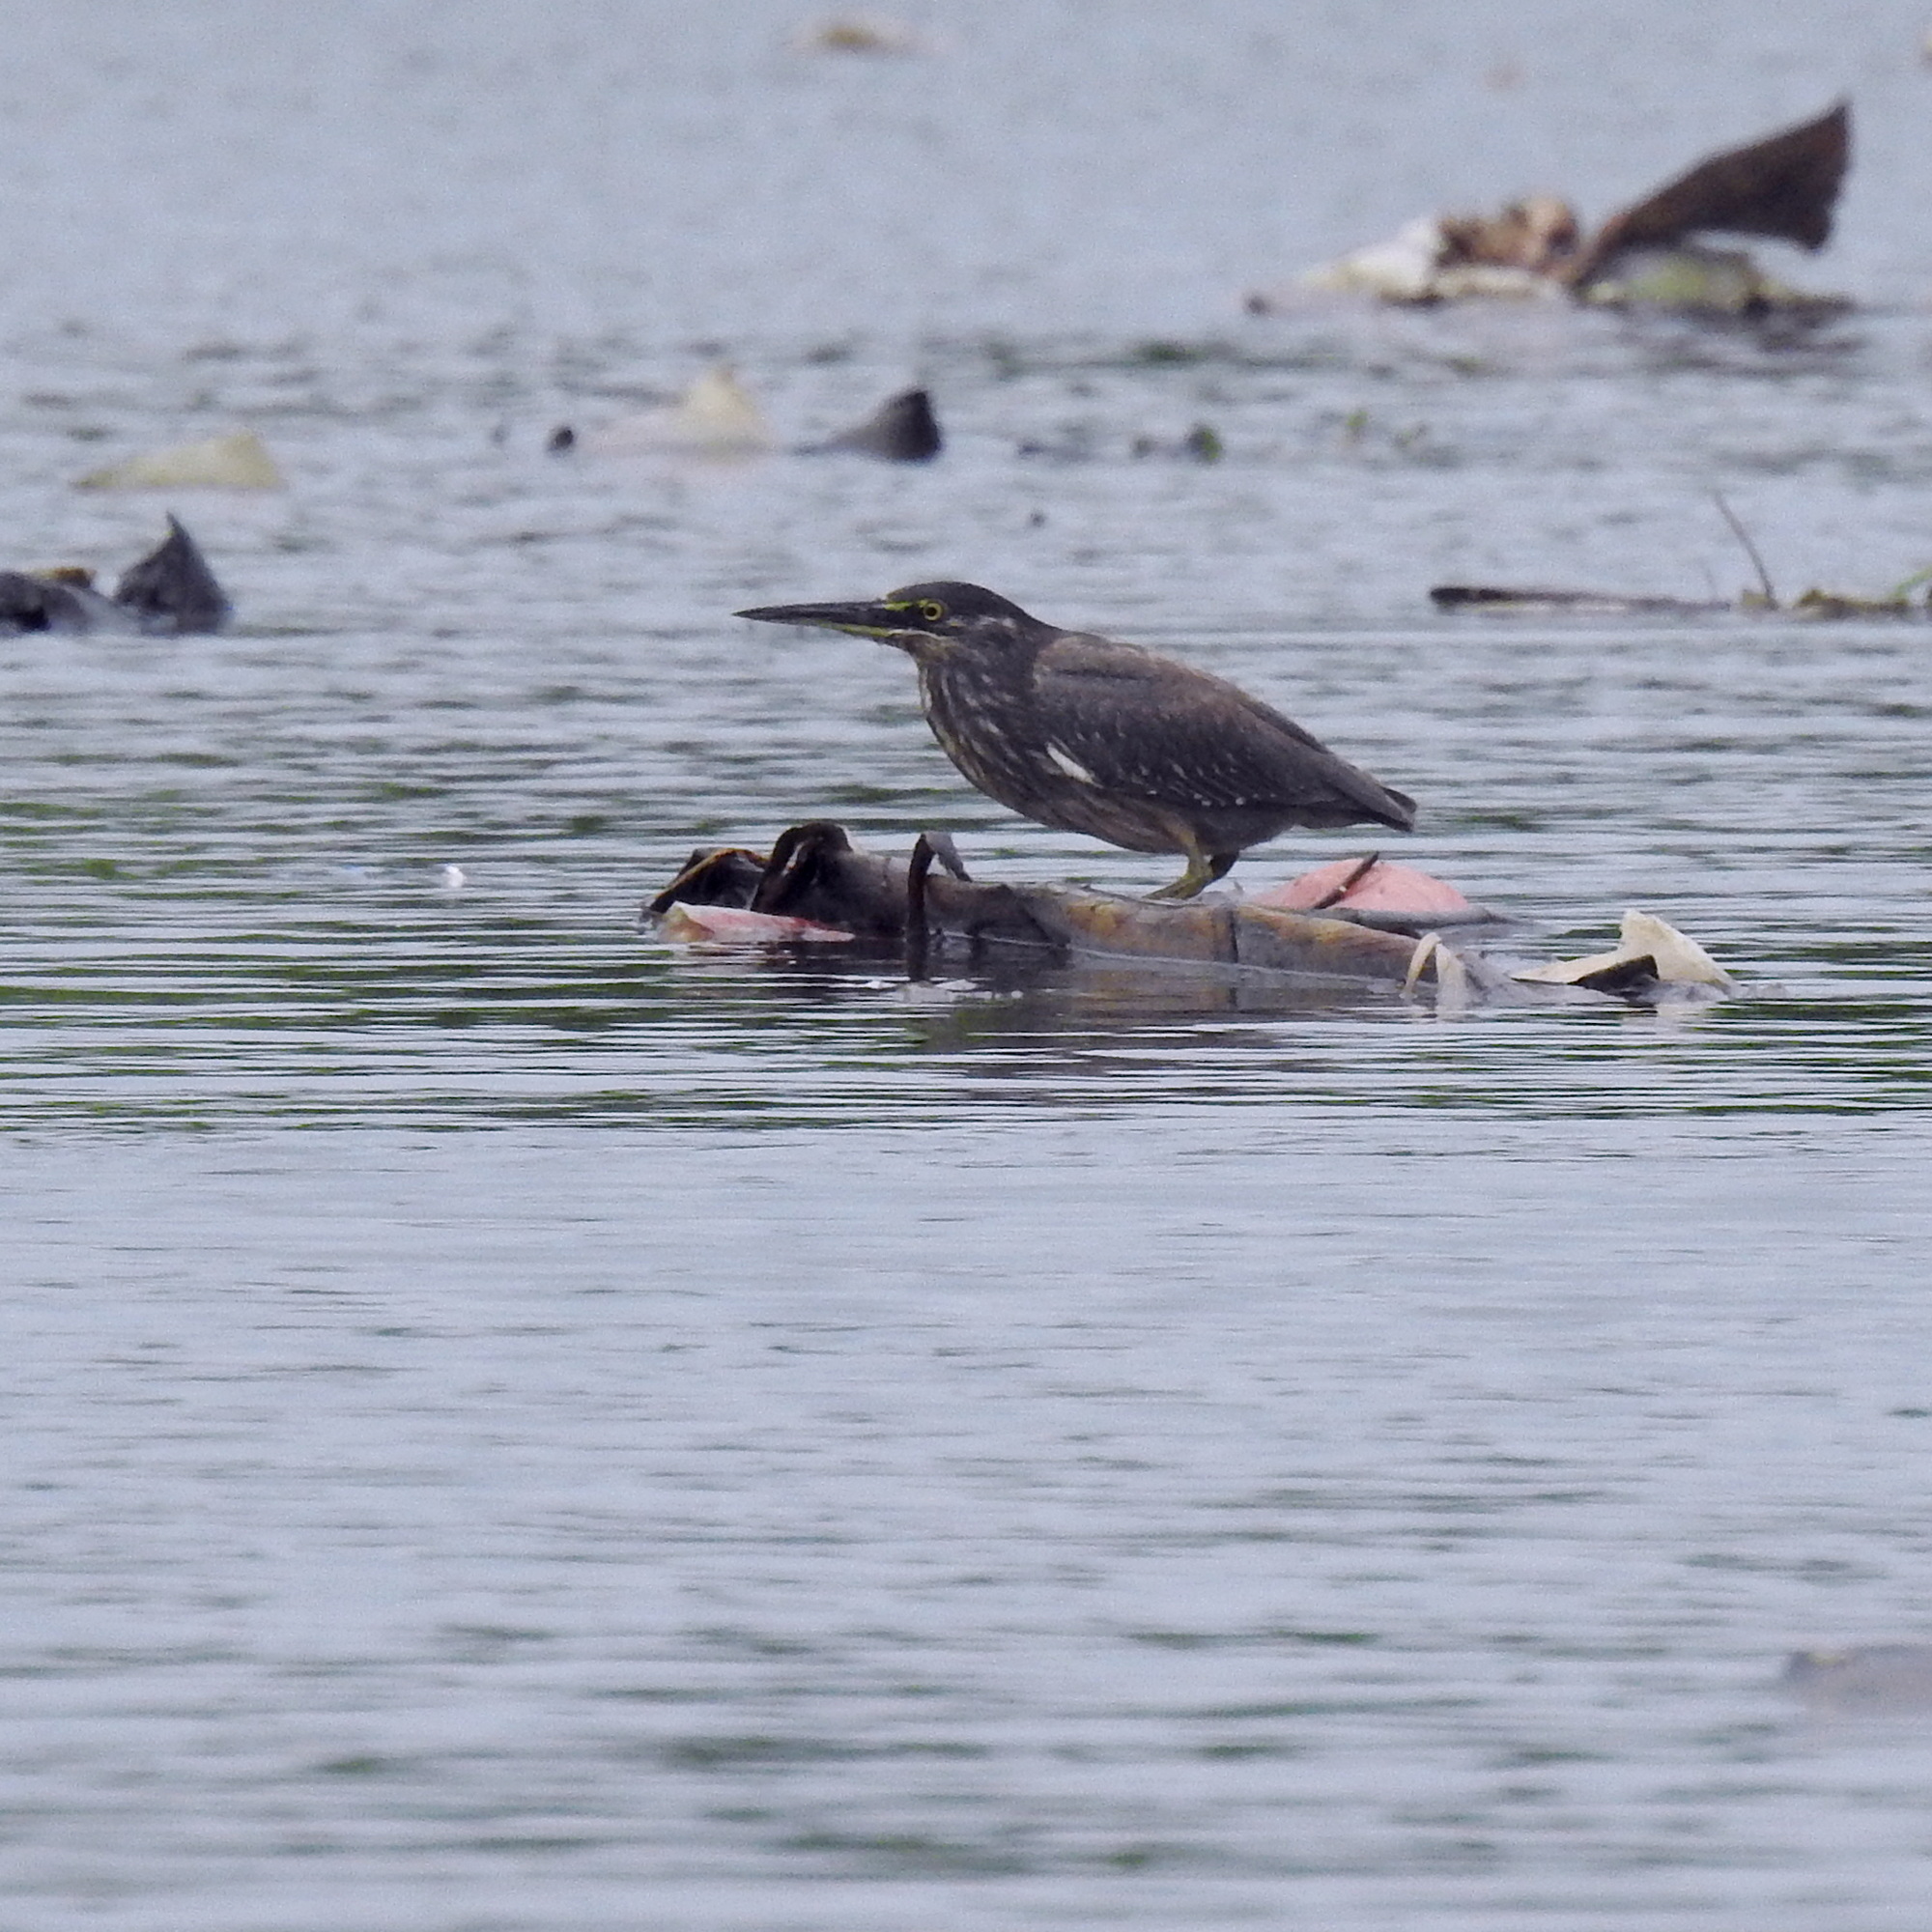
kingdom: Animalia
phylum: Chordata
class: Aves
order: Pelecaniformes
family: Ardeidae
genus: Butorides
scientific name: Butorides striata
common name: Striated heron
